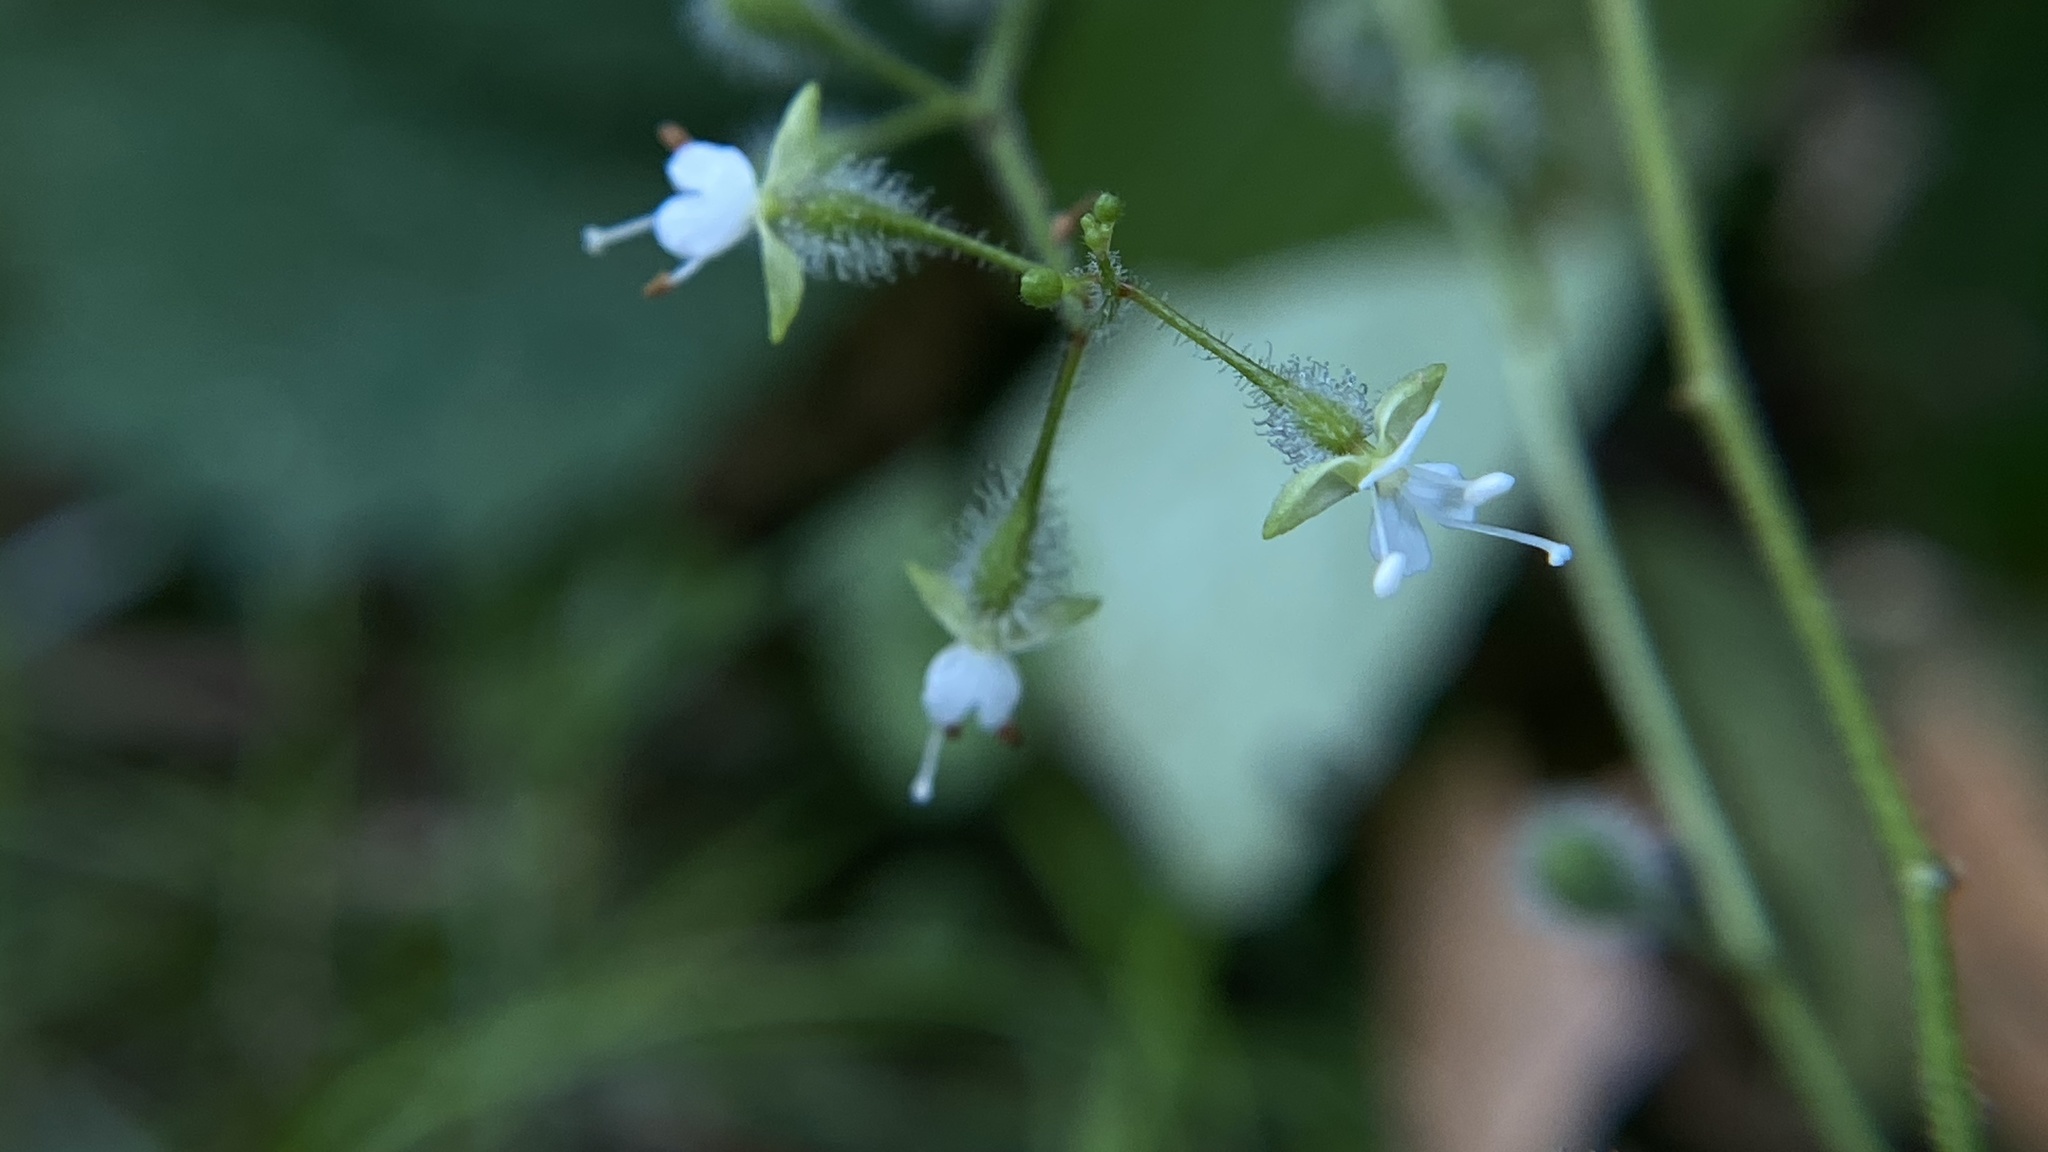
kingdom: Plantae
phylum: Tracheophyta
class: Magnoliopsida
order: Myrtales
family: Onagraceae
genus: Circaea
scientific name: Circaea canadensis
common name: Broad-leaved enchanter's nightshade
